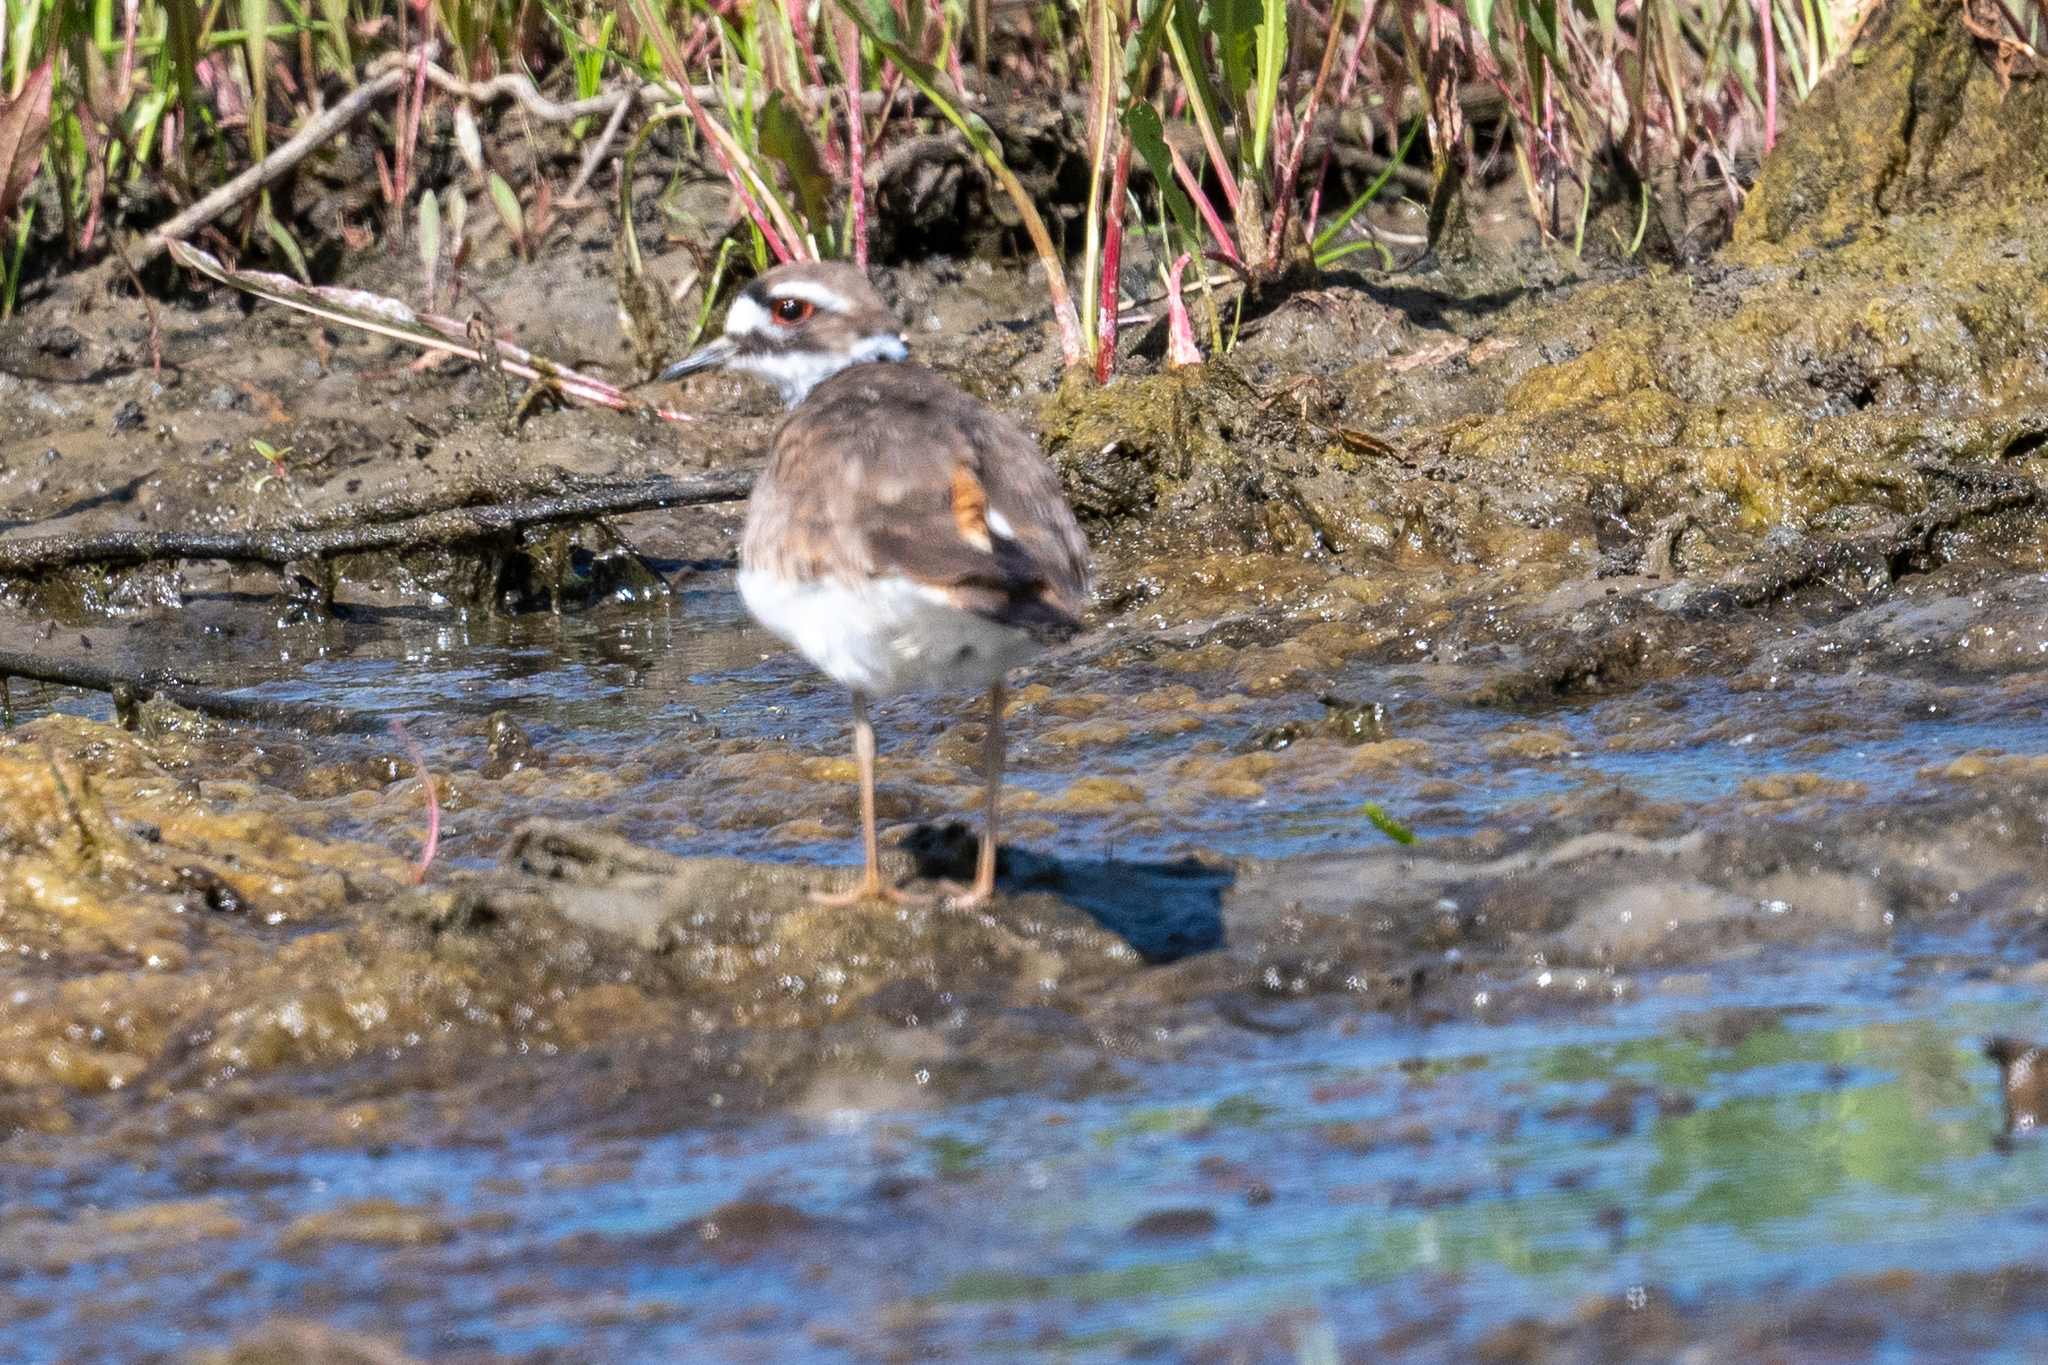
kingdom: Animalia
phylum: Chordata
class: Aves
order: Charadriiformes
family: Charadriidae
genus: Charadrius
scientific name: Charadrius vociferus
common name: Killdeer
